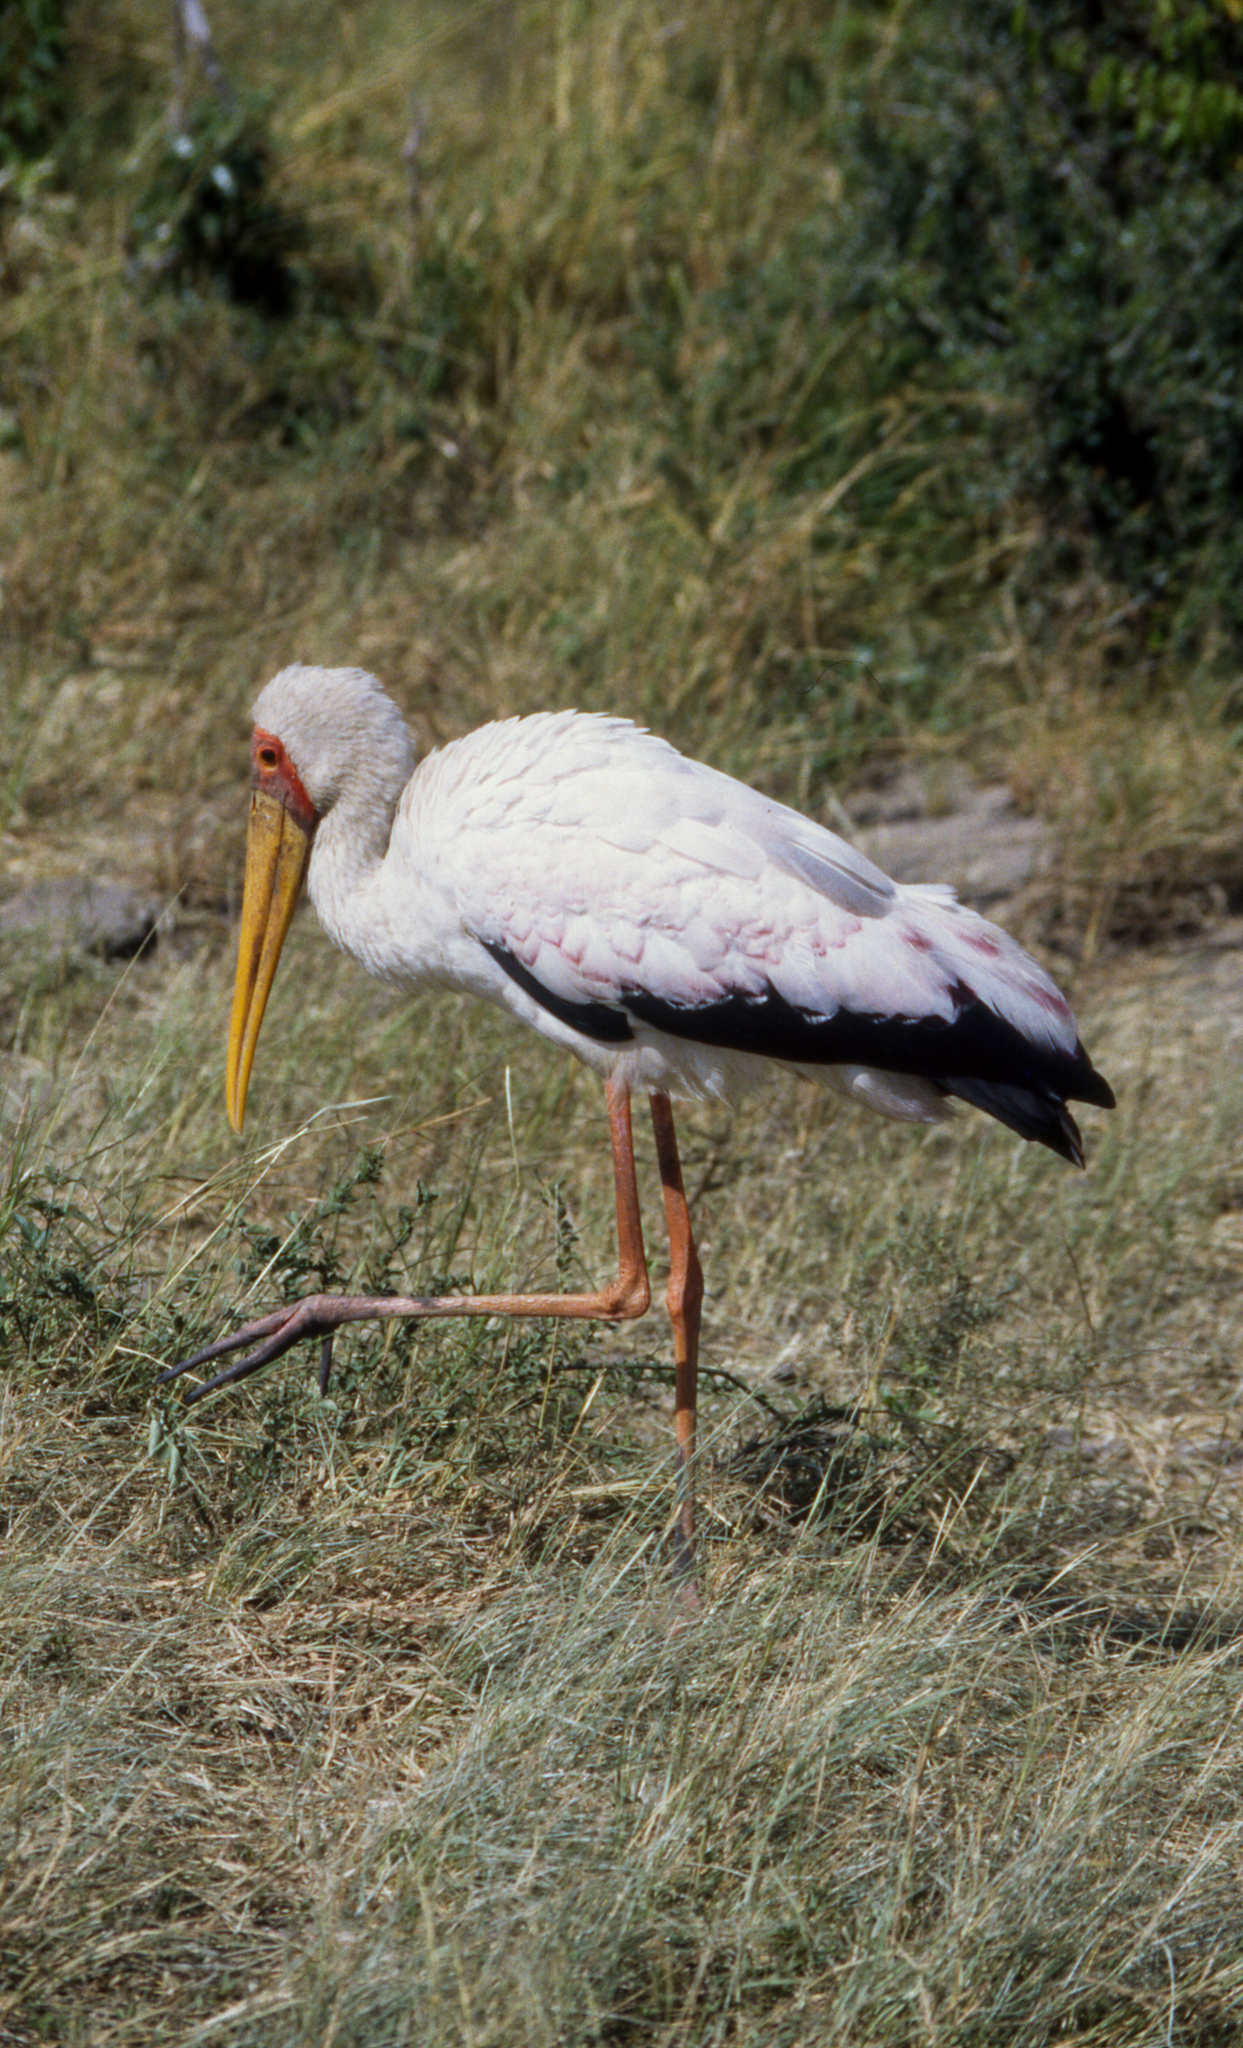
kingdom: Animalia
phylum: Chordata
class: Aves
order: Ciconiiformes
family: Ciconiidae
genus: Mycteria
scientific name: Mycteria ibis
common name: Yellow-billed stork
